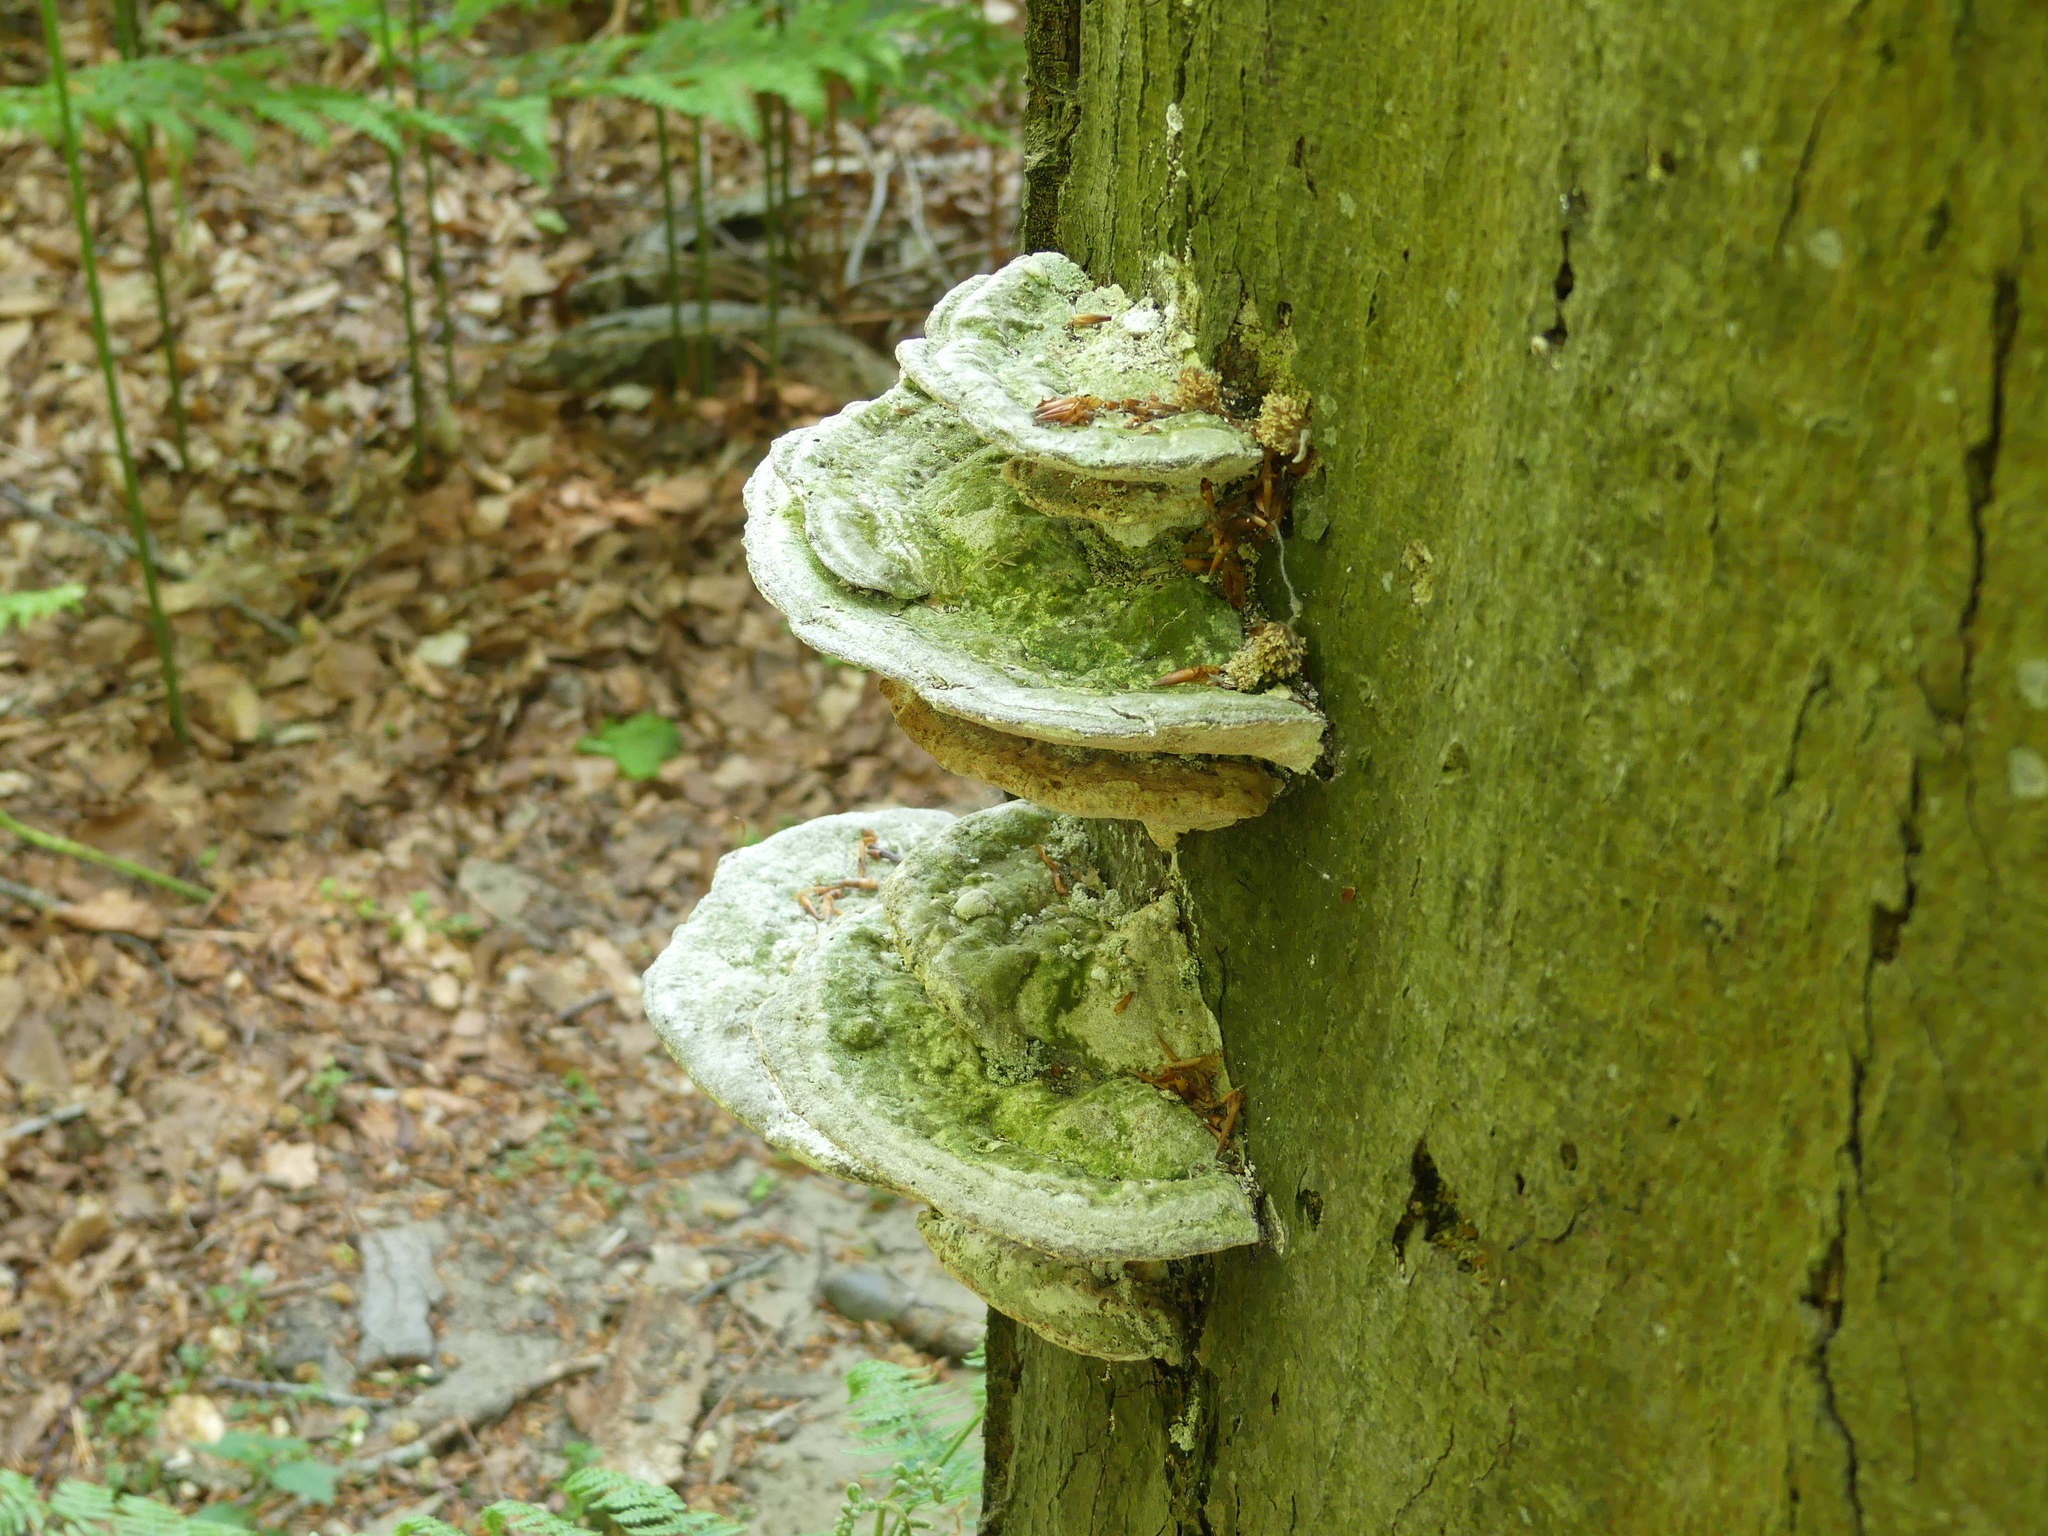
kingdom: Fungi
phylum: Basidiomycota
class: Agaricomycetes
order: Polyporales
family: Polyporaceae
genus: Trametes
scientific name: Trametes gibbosa
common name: Lumpy bracket
